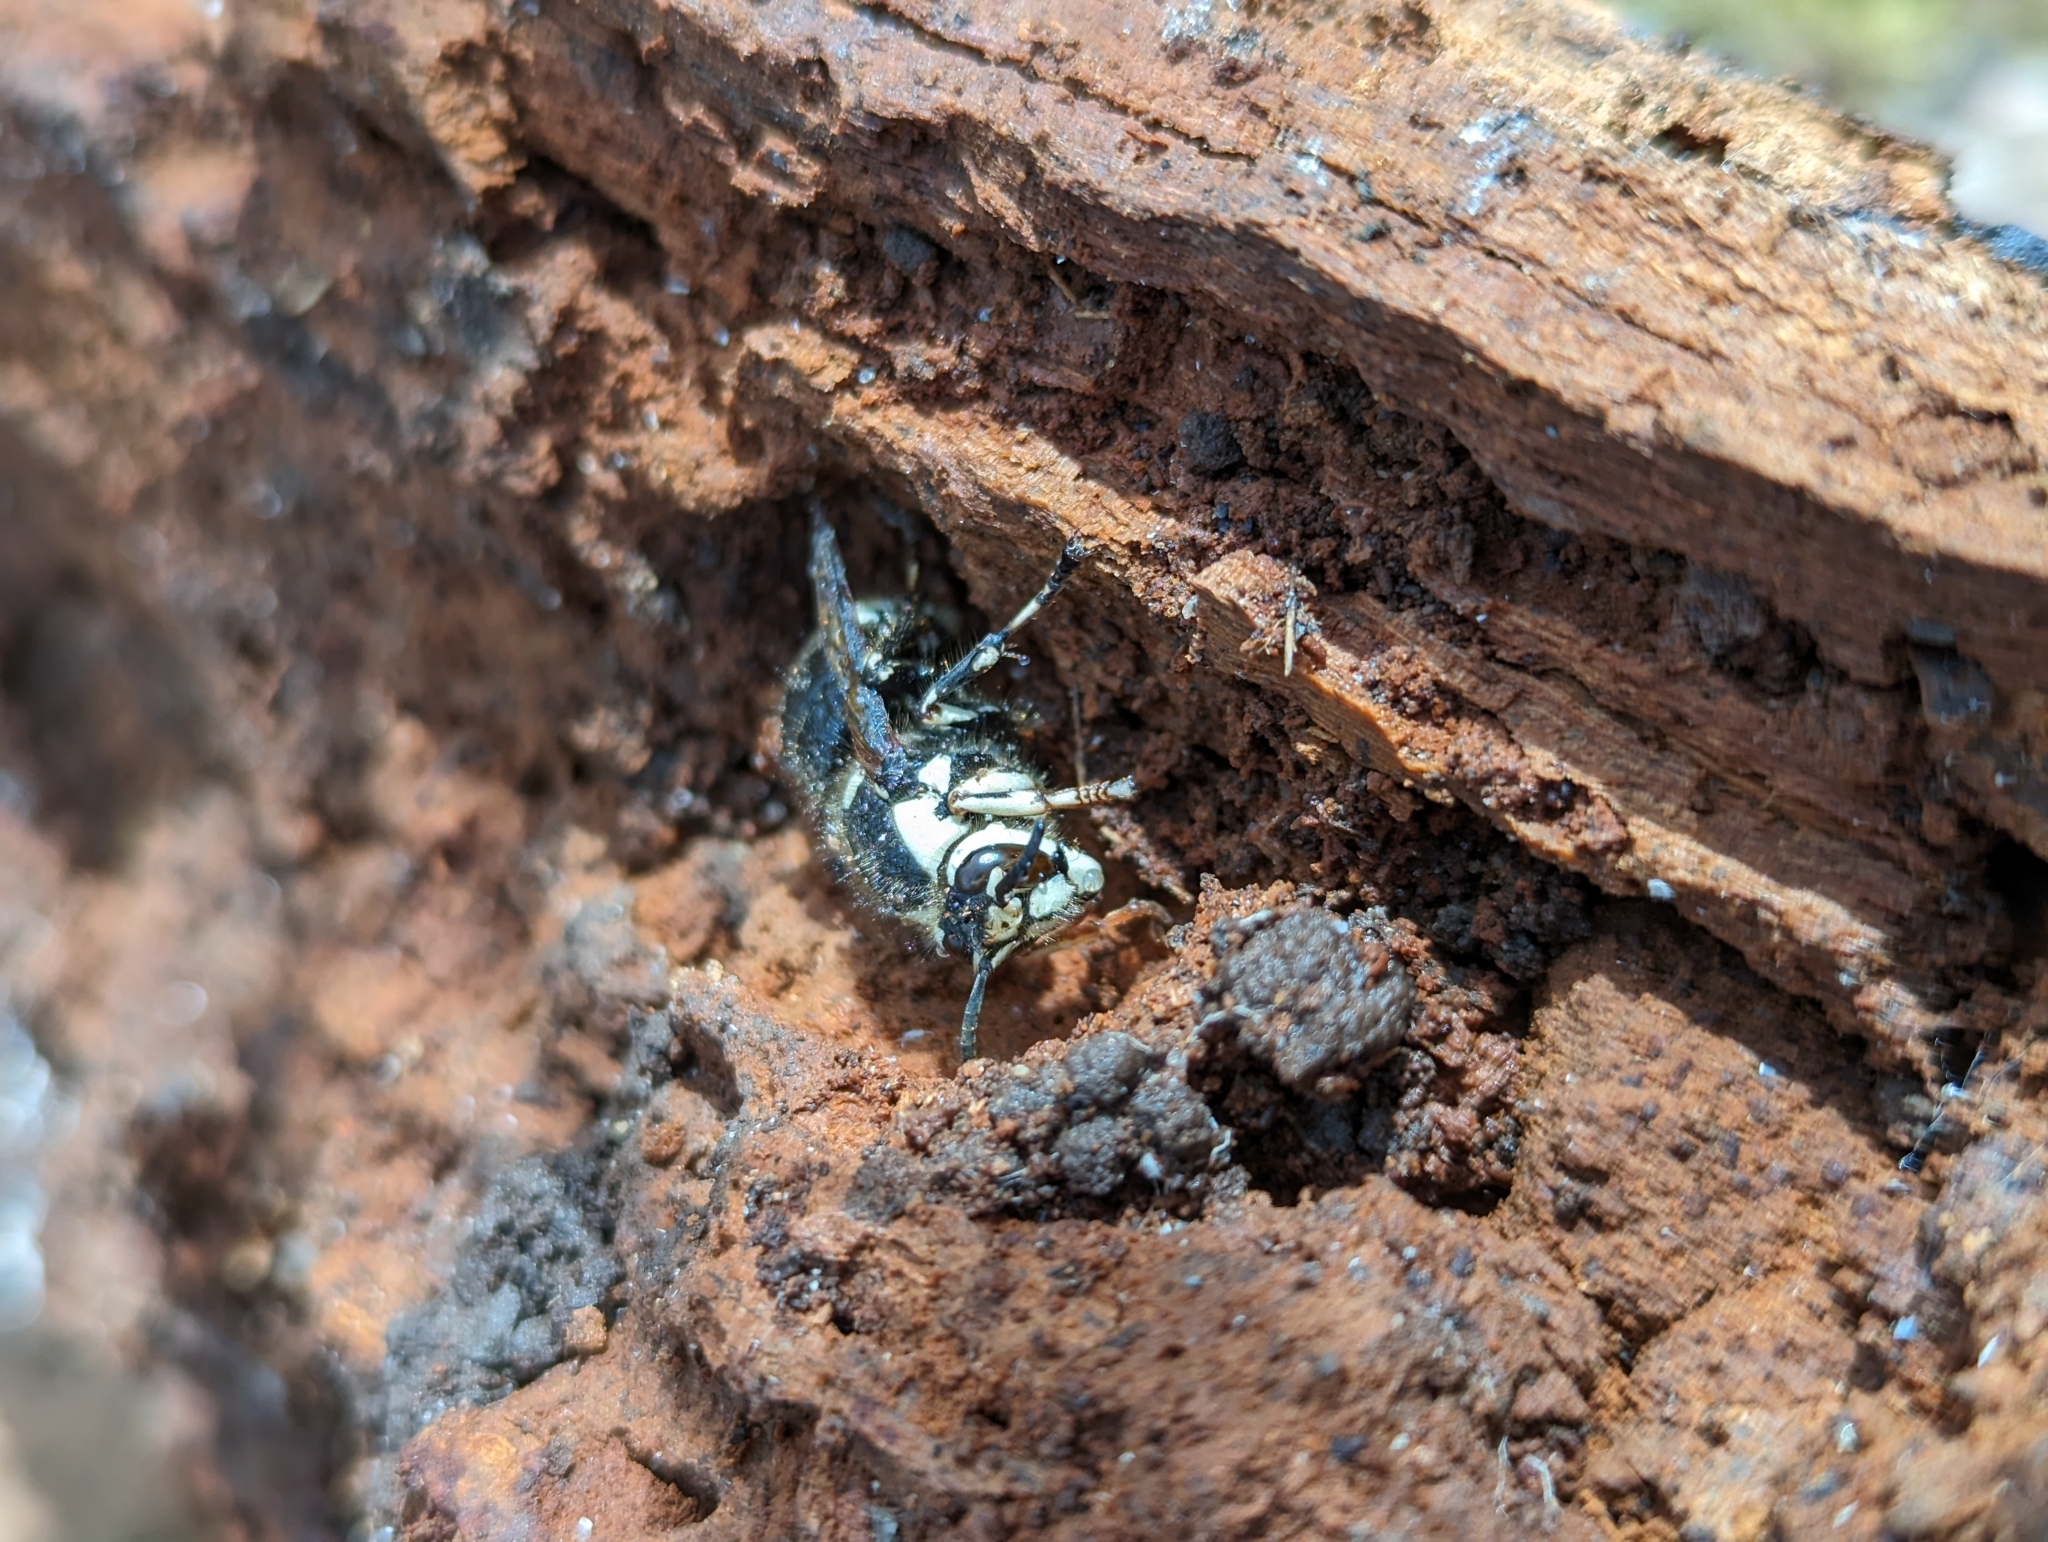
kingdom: Animalia
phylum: Arthropoda
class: Insecta
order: Hymenoptera
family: Vespidae
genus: Dolichovespula
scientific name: Dolichovespula maculata
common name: Bald-faced hornet
